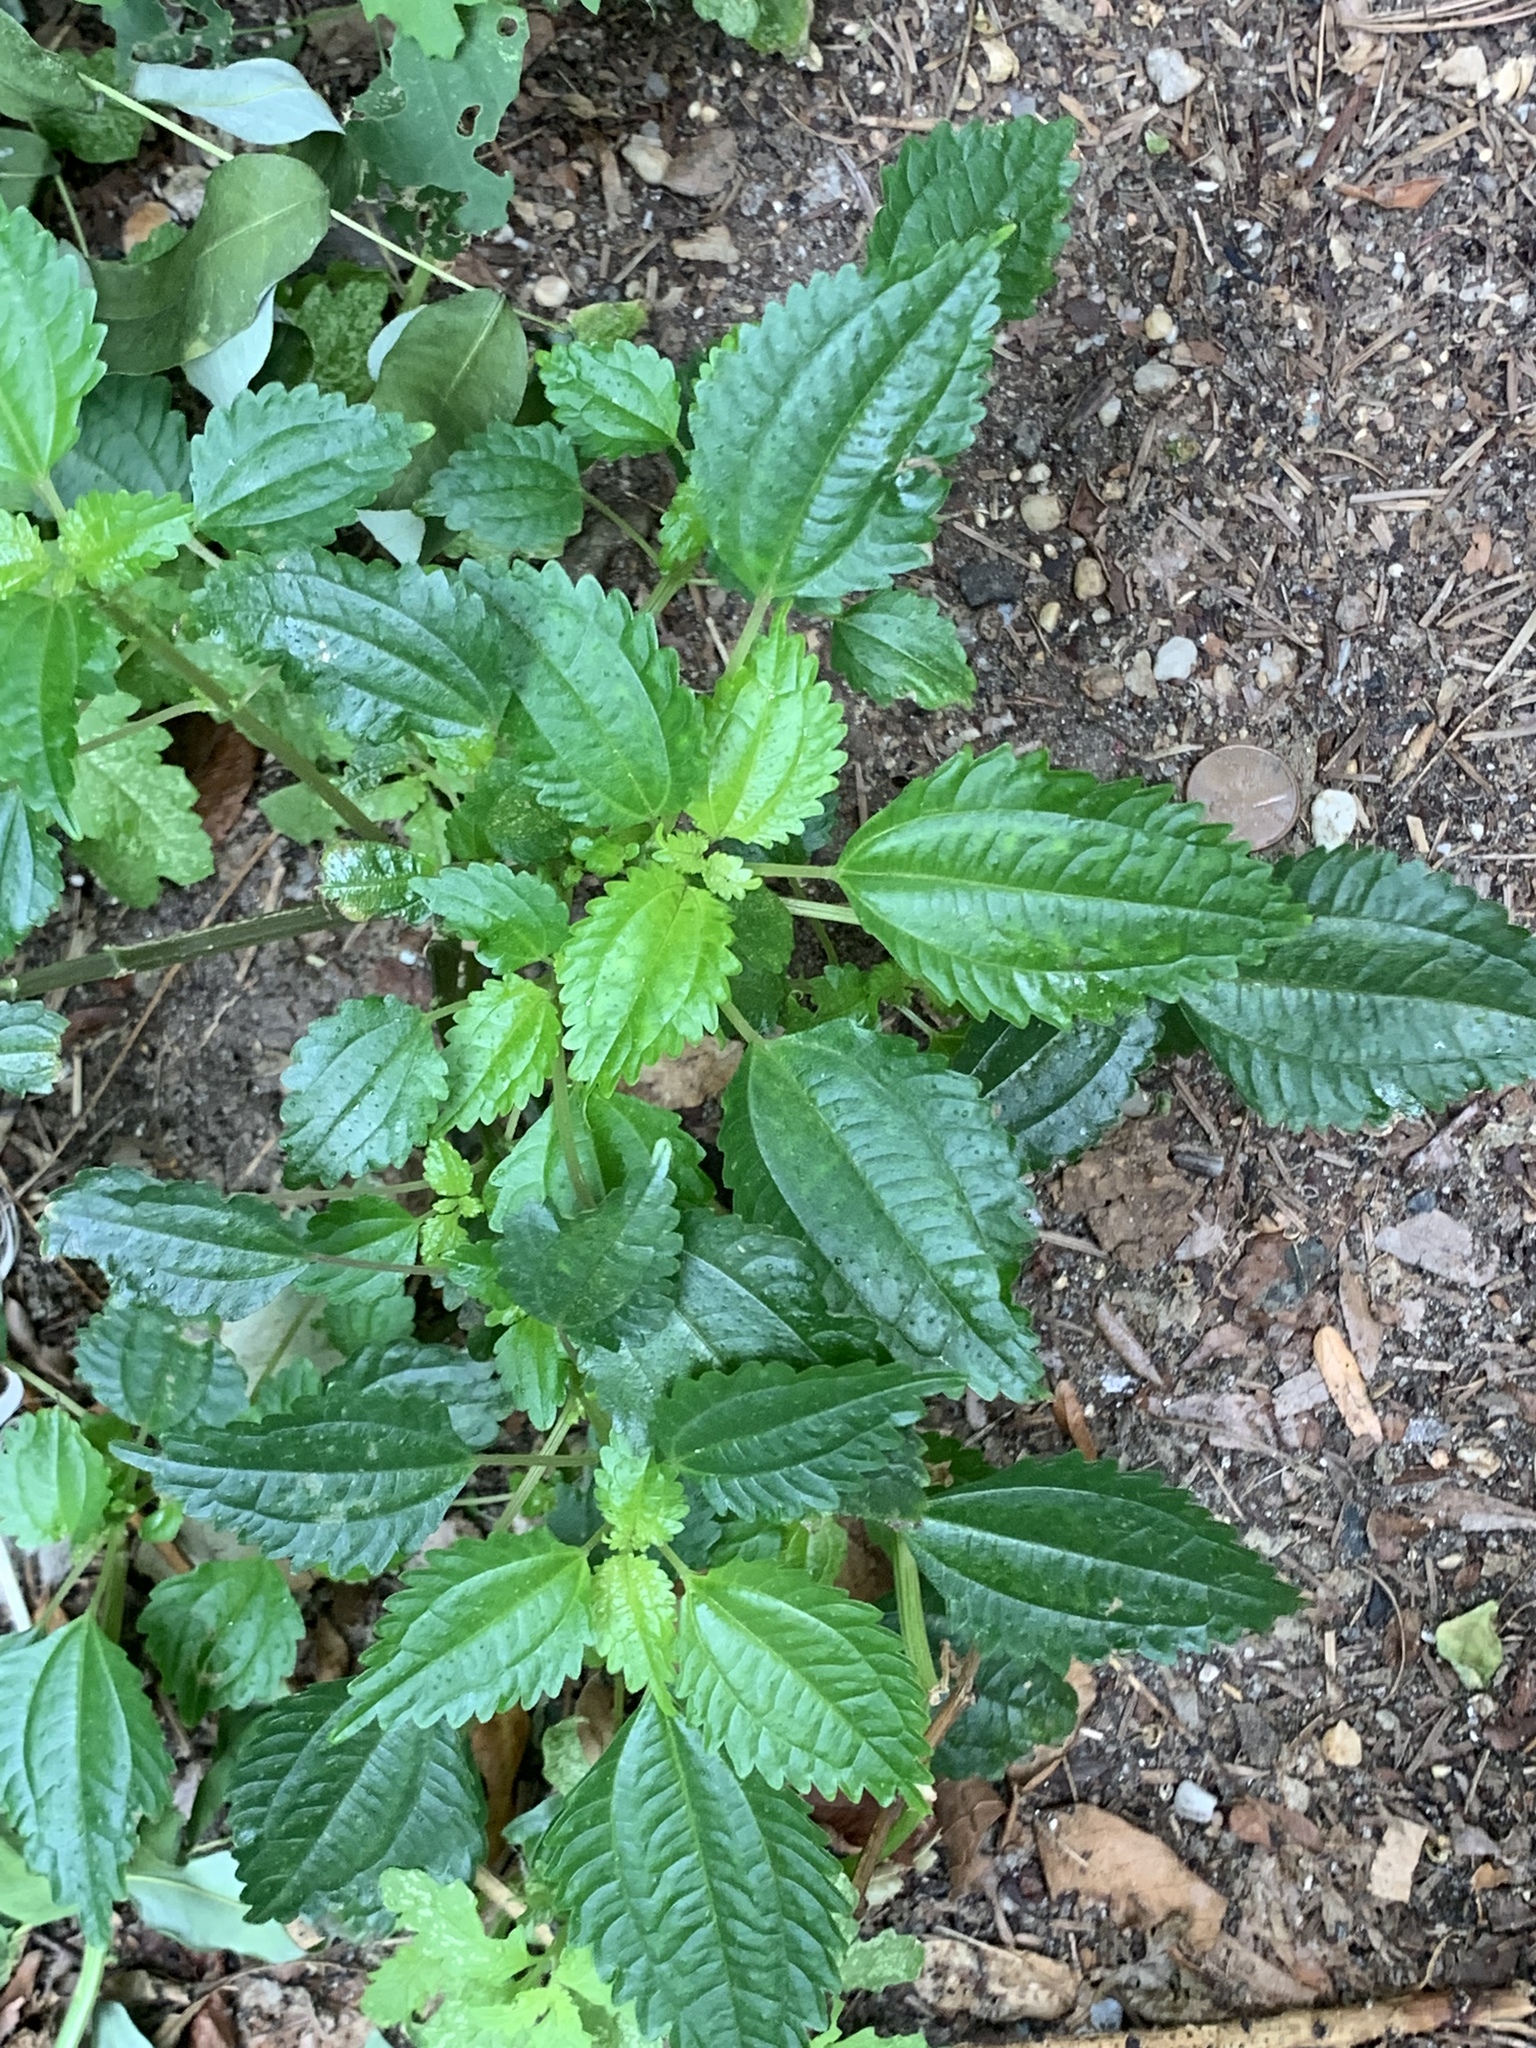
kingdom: Plantae
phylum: Tracheophyta
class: Magnoliopsida
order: Rosales
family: Urticaceae
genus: Pilea
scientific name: Pilea pumila
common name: Clearweed
